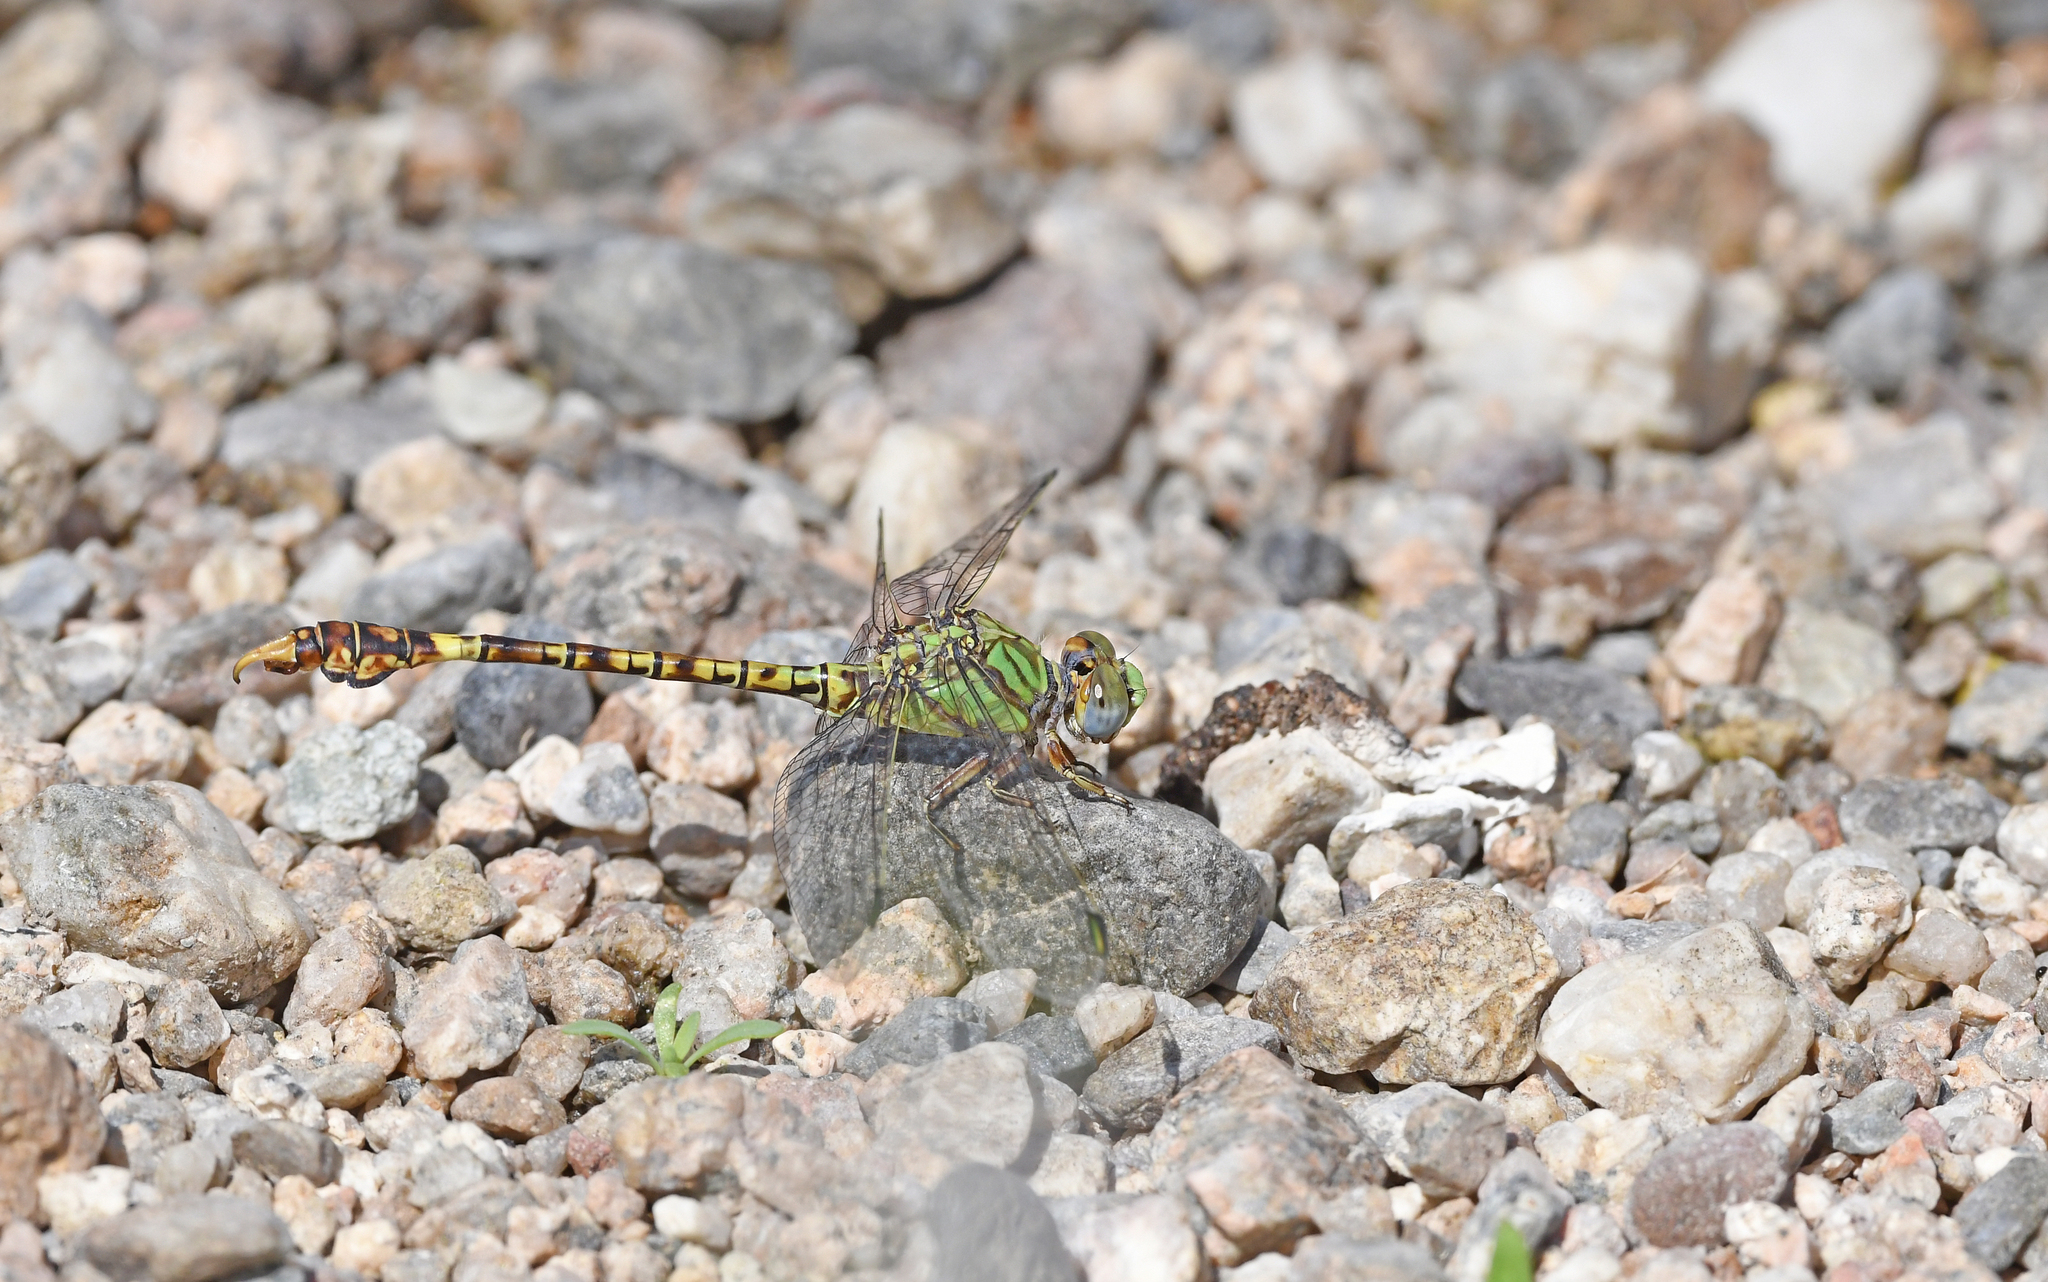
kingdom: Animalia
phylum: Arthropoda
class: Insecta
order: Odonata
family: Gomphidae
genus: Paragomphus
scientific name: Paragomphus genei
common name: Common hooktail
